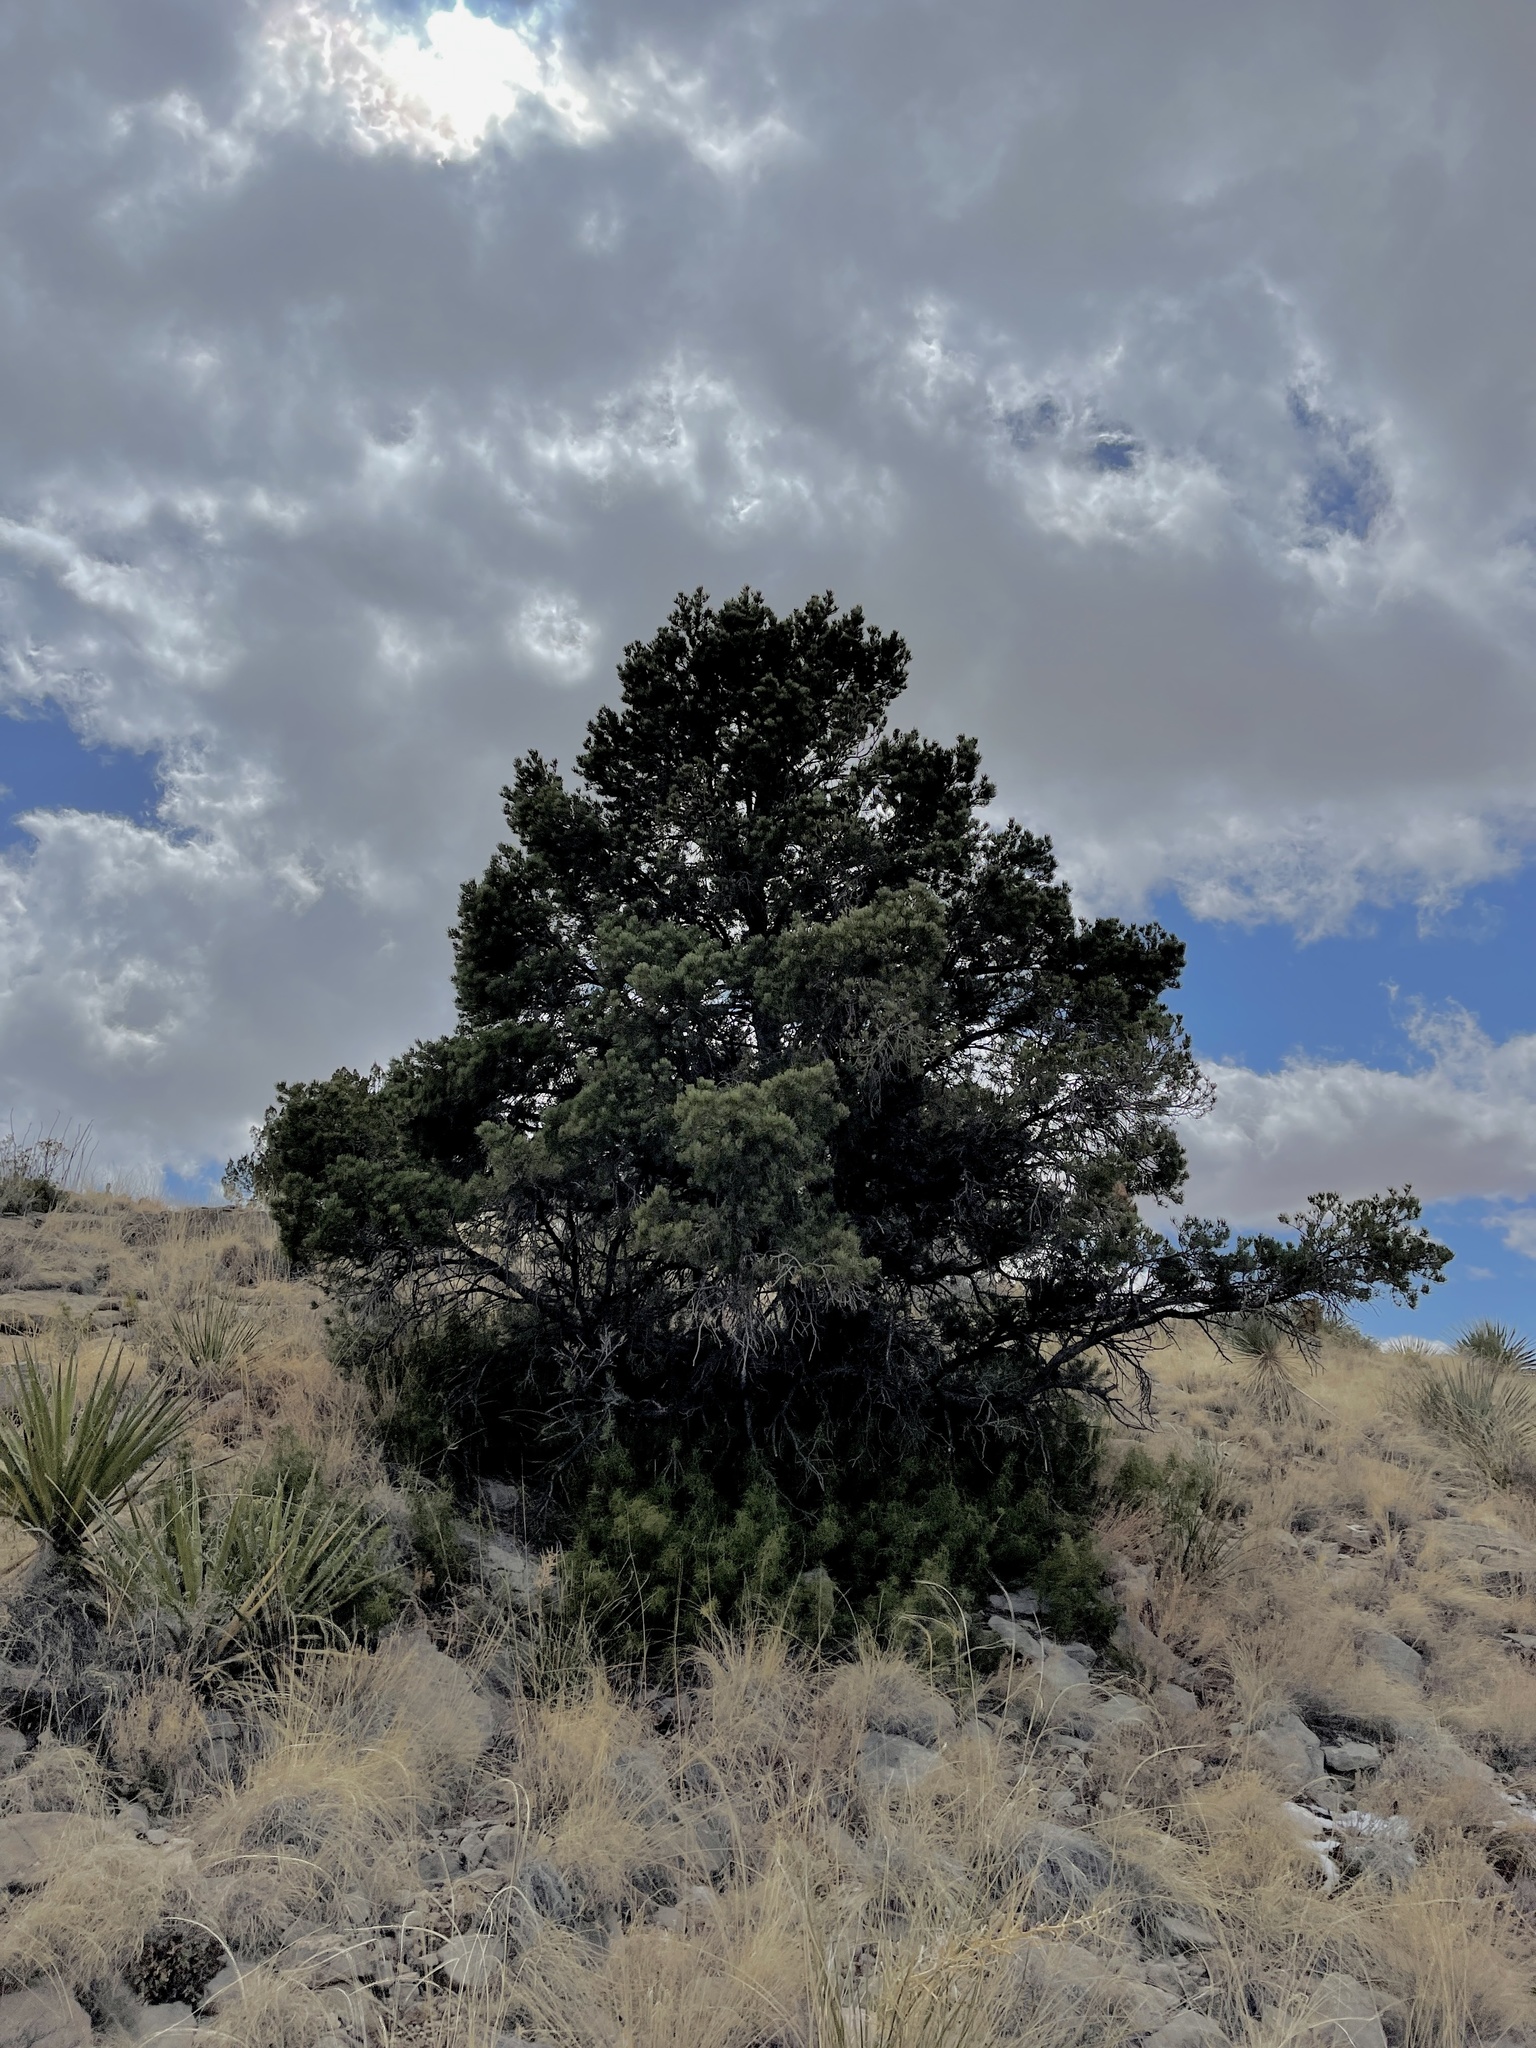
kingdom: Plantae
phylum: Tracheophyta
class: Pinopsida
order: Pinales
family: Pinaceae
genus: Pinus
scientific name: Pinus edulis
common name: Colorado pinyon
